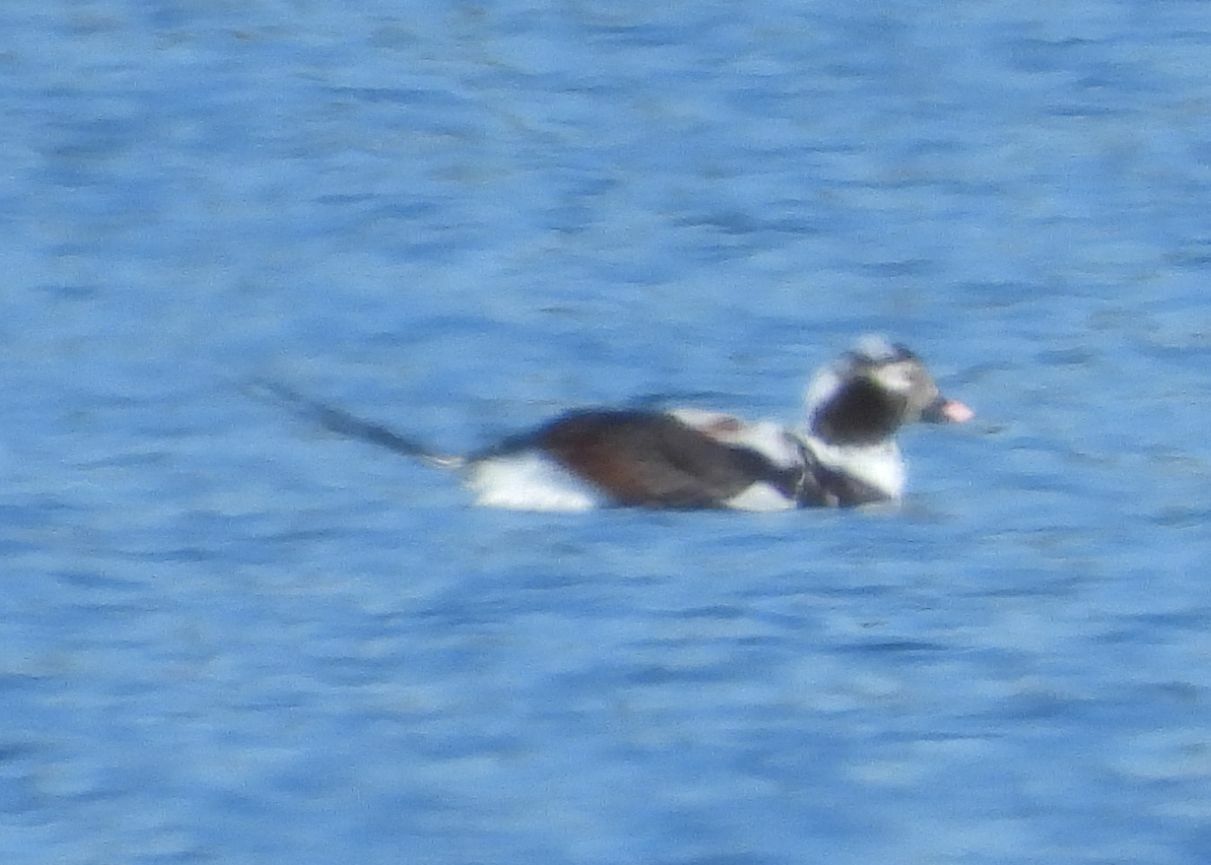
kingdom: Animalia
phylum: Chordata
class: Aves
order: Anseriformes
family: Anatidae
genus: Clangula
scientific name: Clangula hyemalis
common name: Long-tailed duck
